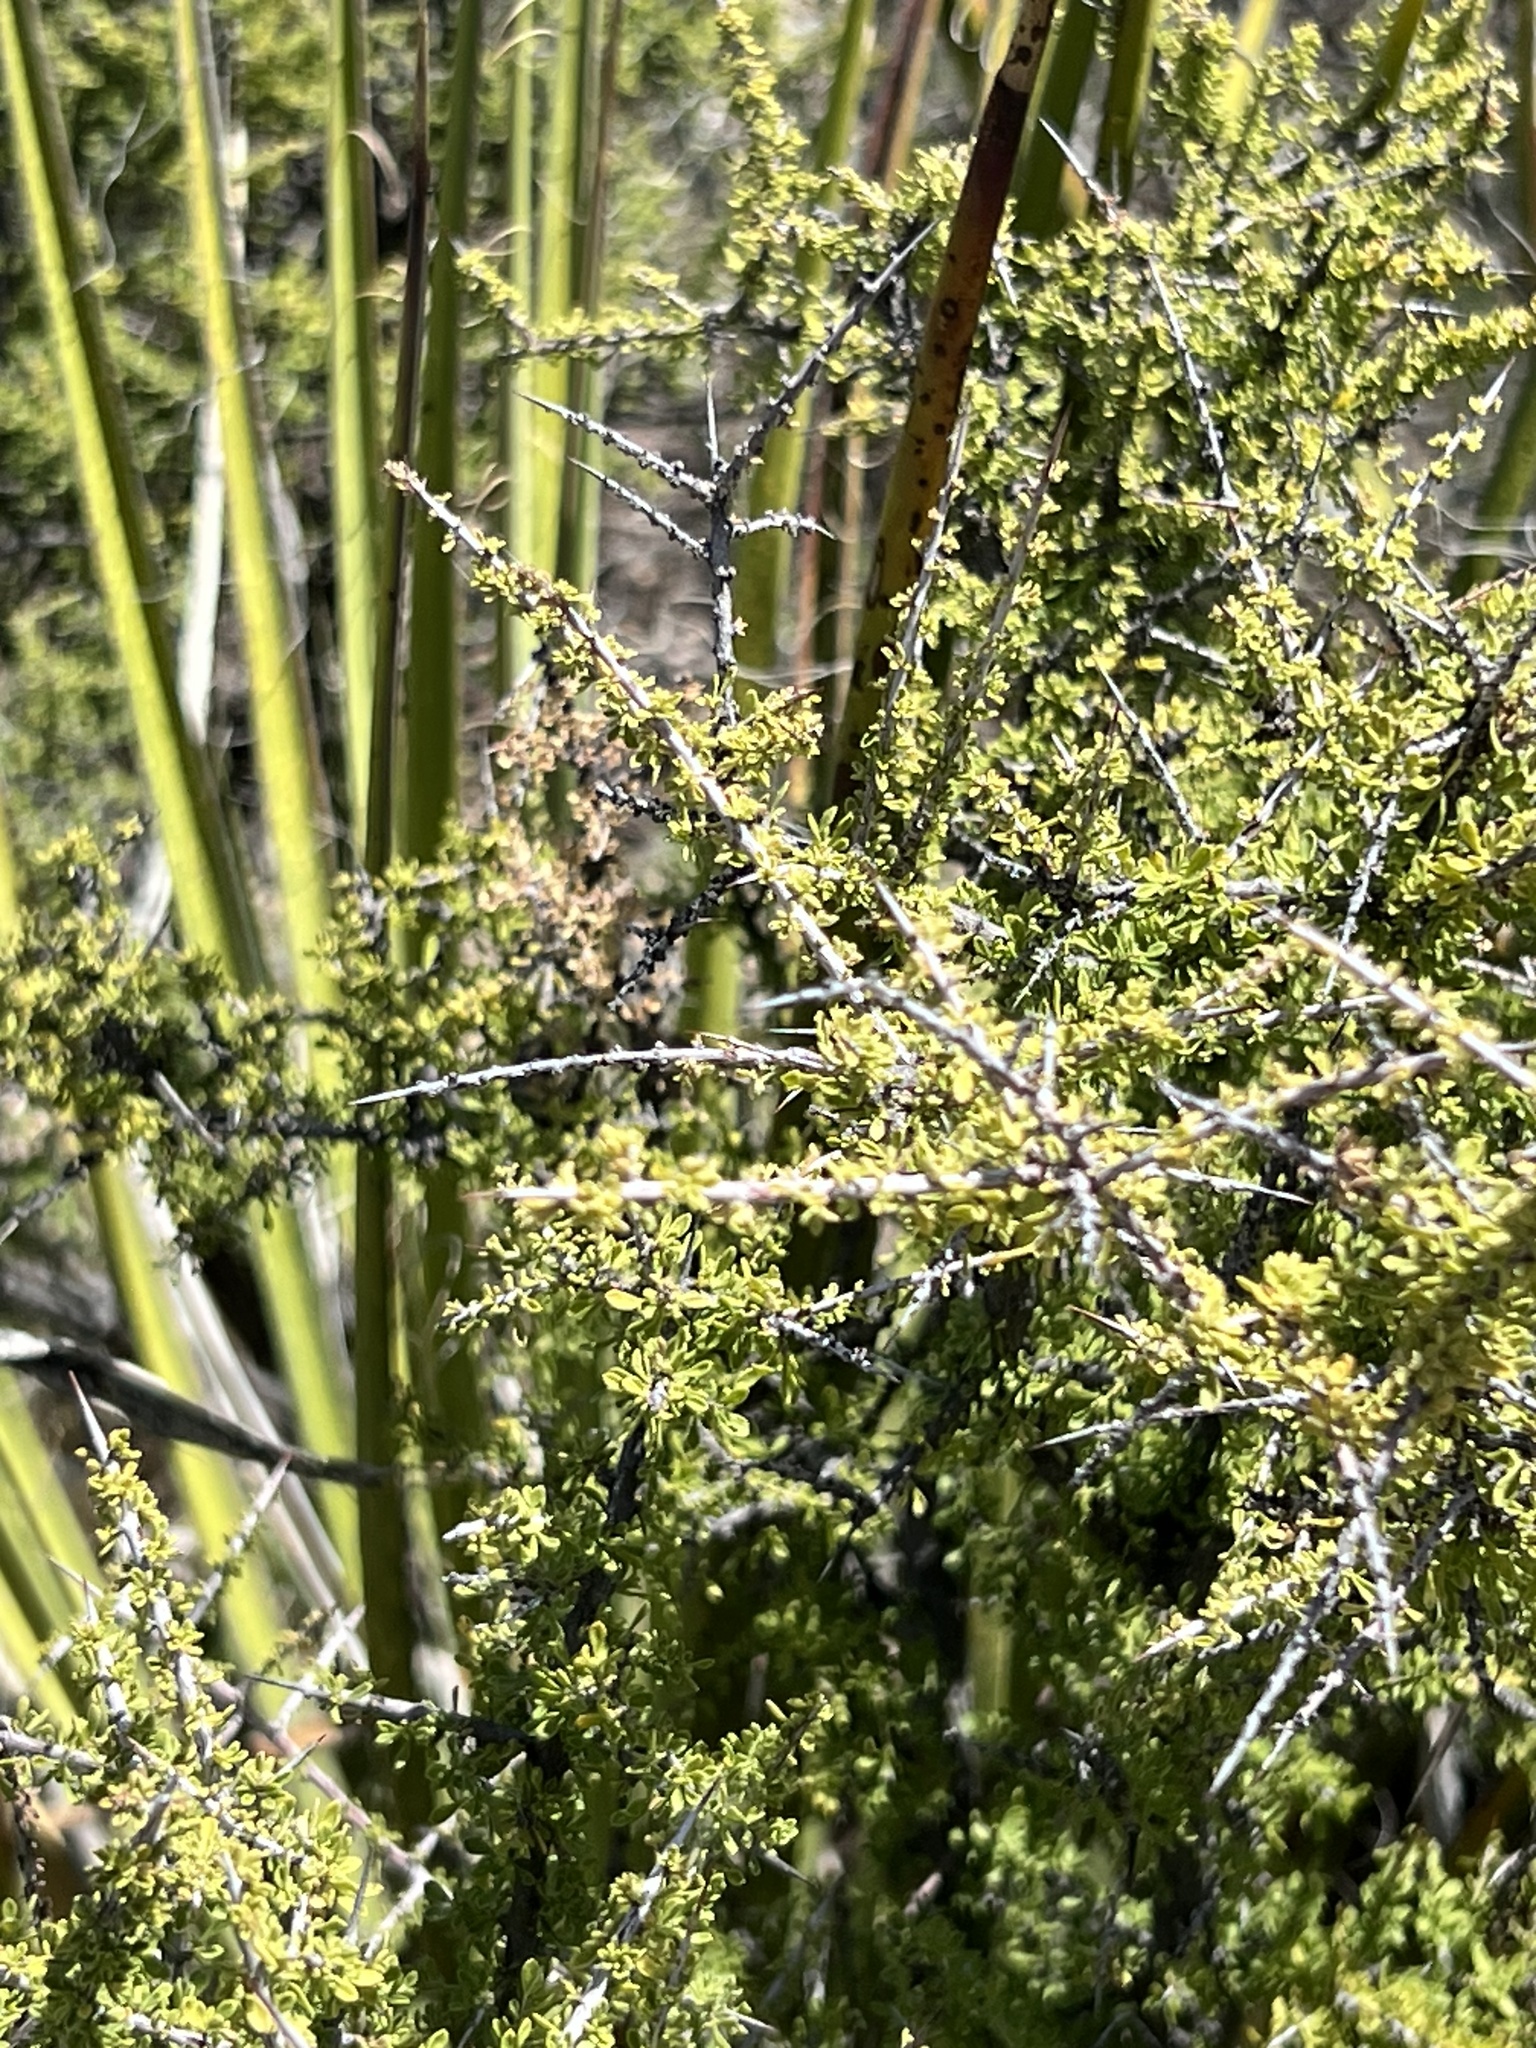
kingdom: Plantae
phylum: Tracheophyta
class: Magnoliopsida
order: Rosales
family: Rhamnaceae
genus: Condalia
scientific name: Condalia warnockii
